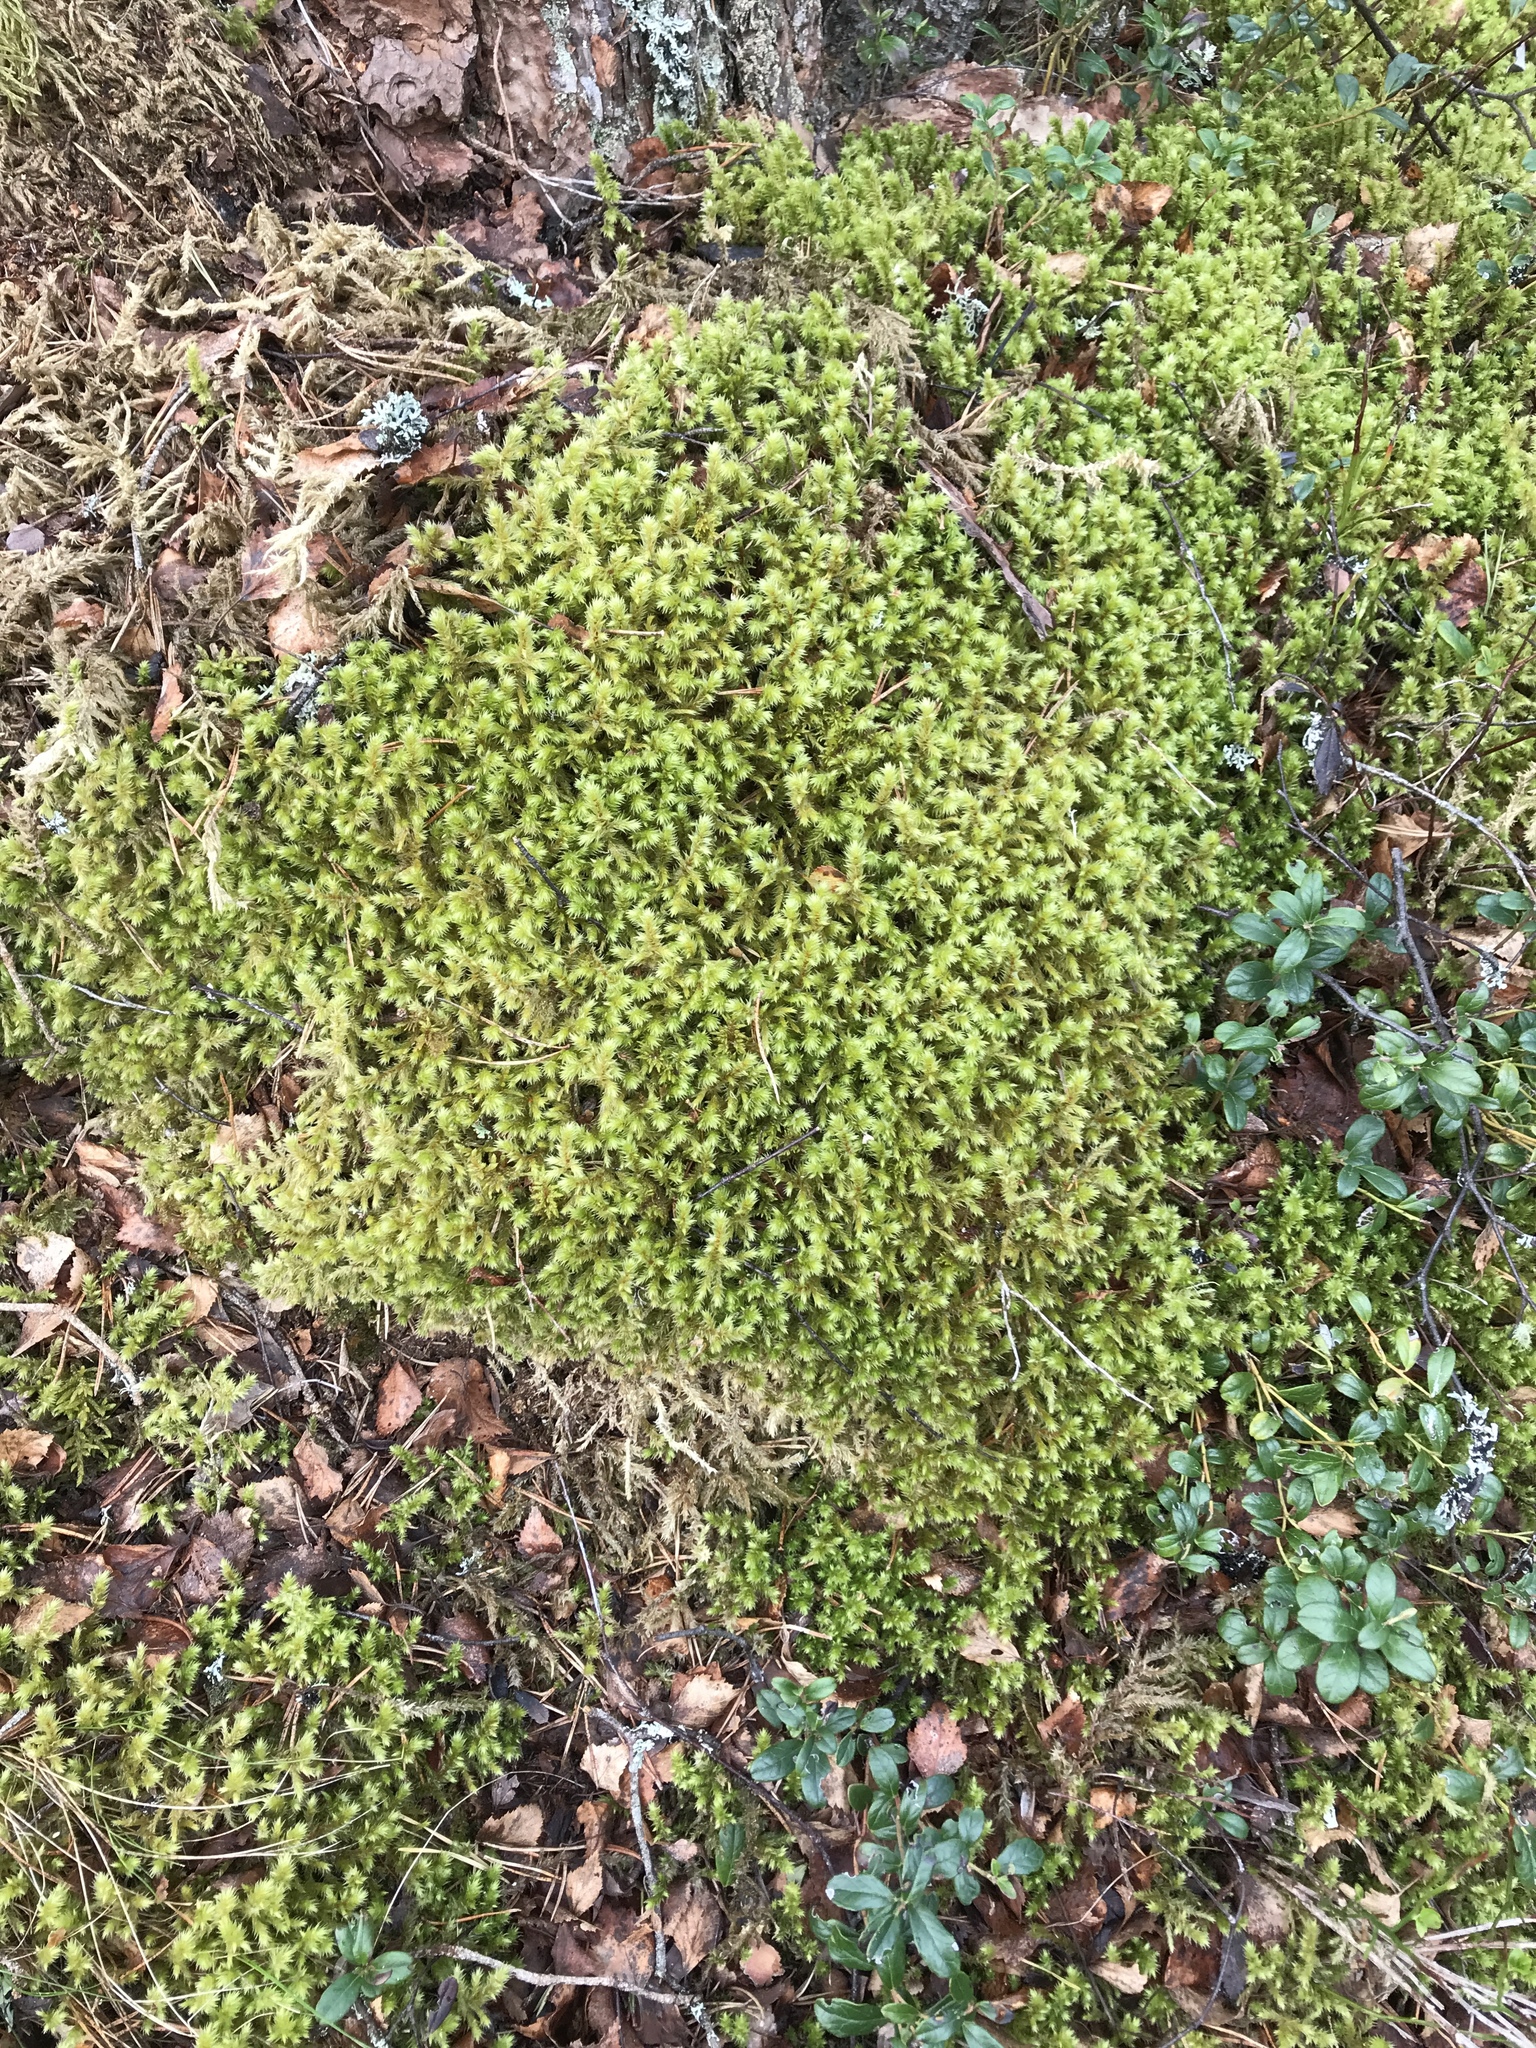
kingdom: Plantae
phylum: Bryophyta
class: Bryopsida
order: Hypnales
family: Hylocomiaceae
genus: Hylocomiadelphus
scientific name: Hylocomiadelphus triquetrus
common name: Rough goose neck moss
